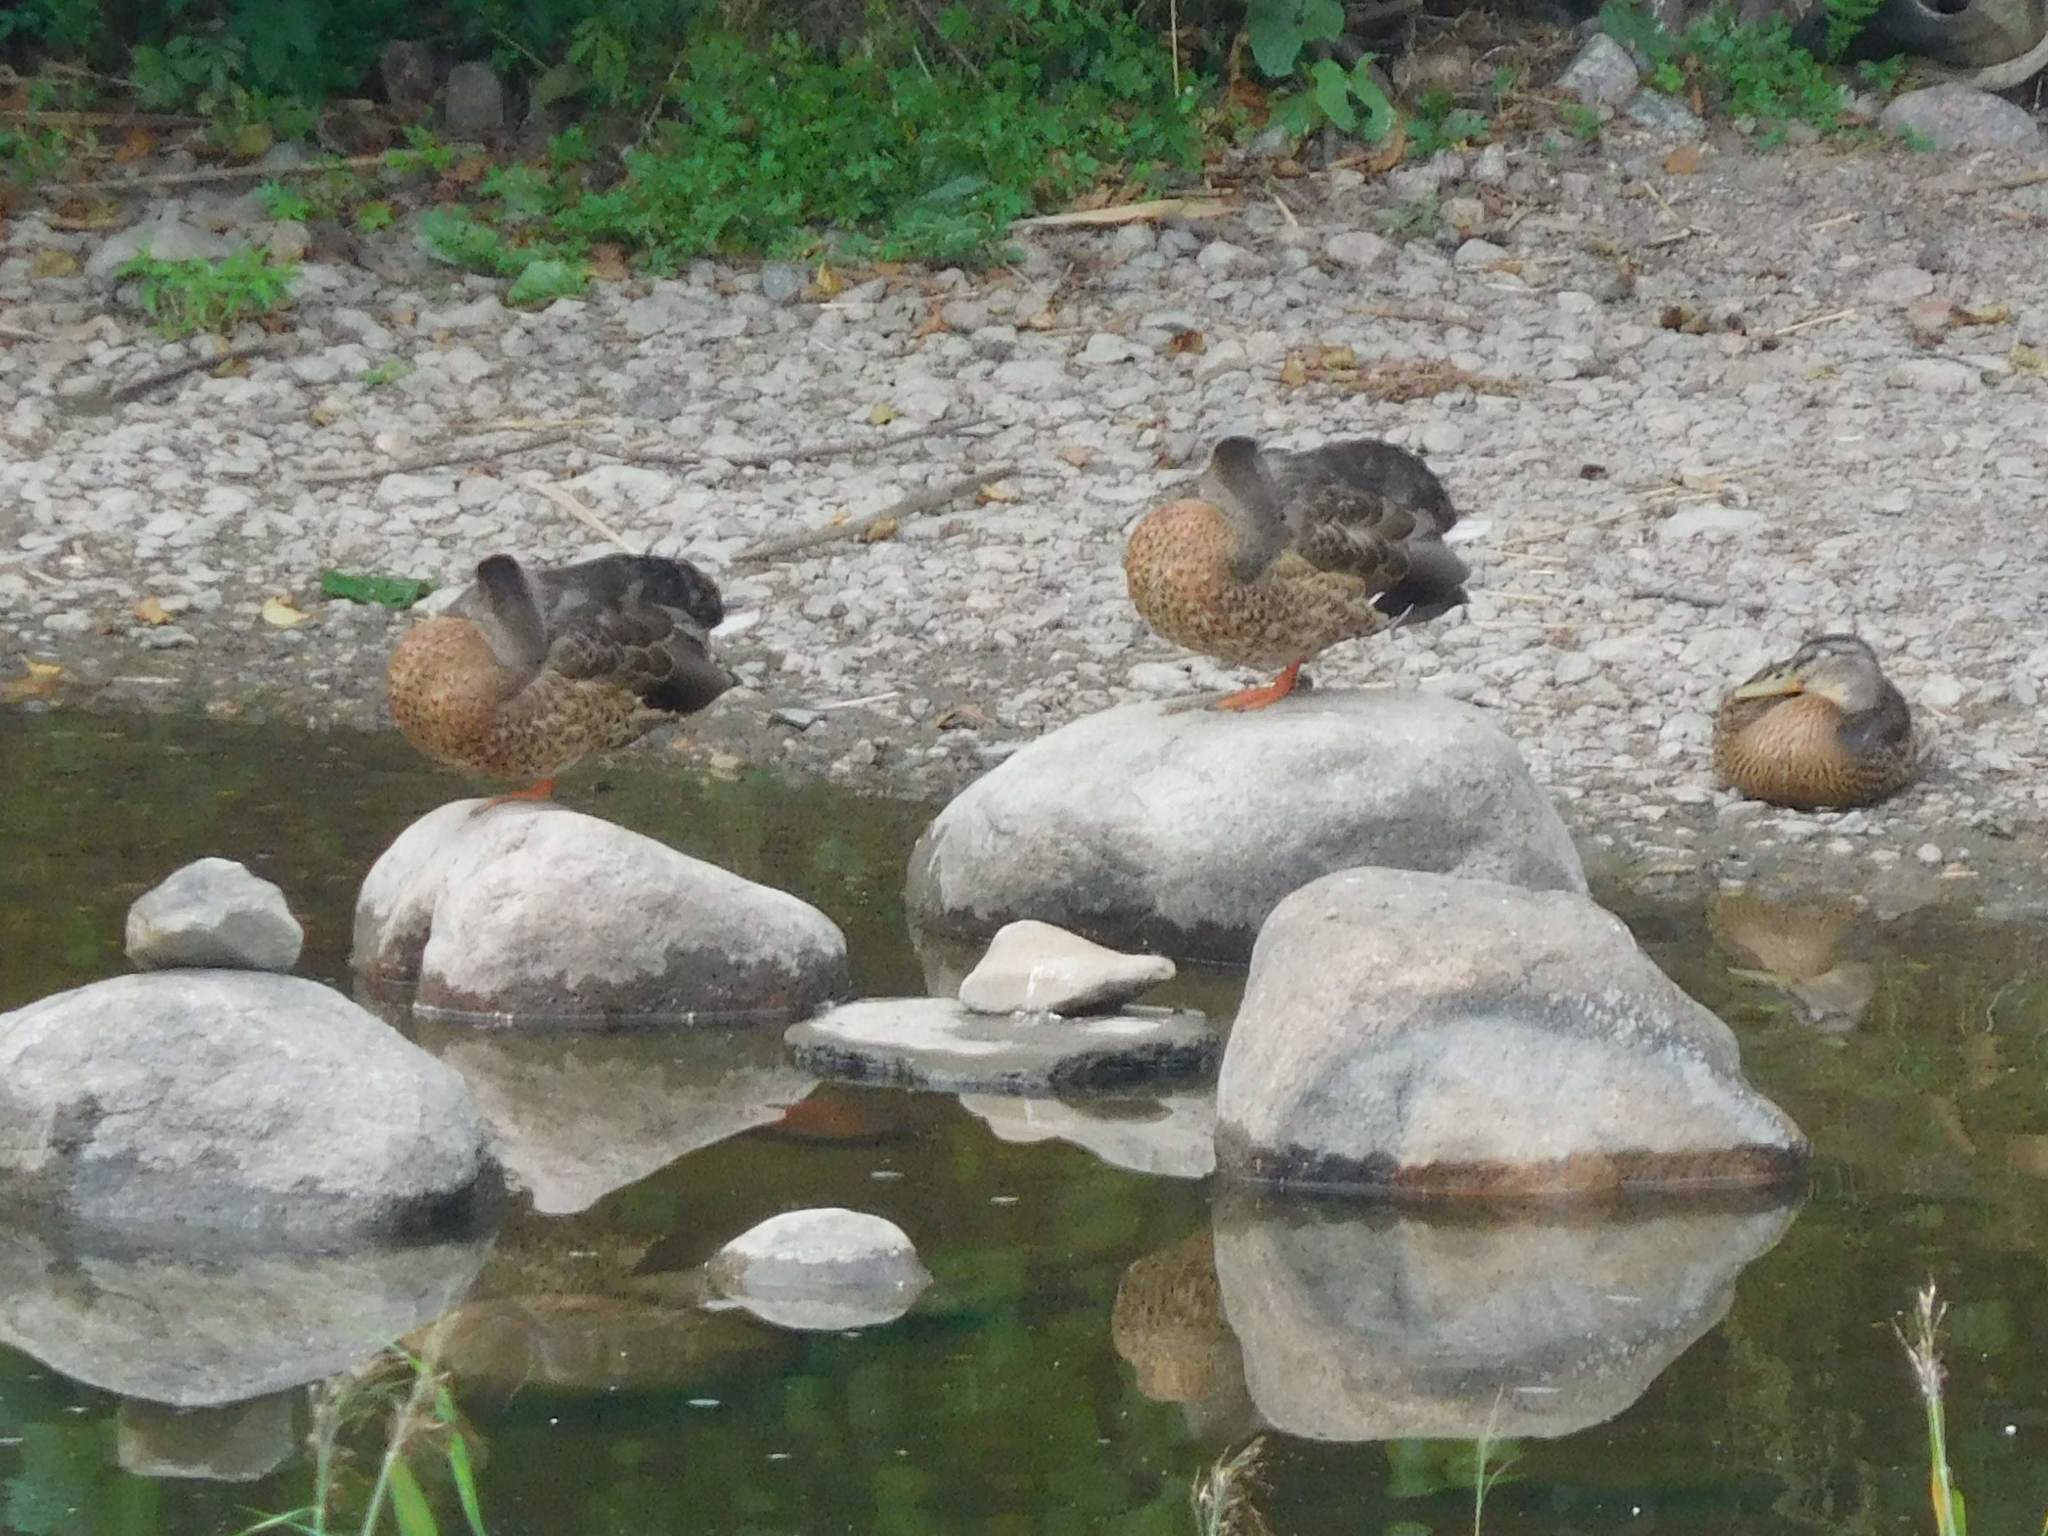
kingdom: Animalia
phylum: Chordata
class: Aves
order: Anseriformes
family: Anatidae
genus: Anas
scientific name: Anas platyrhynchos
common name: Mallard
